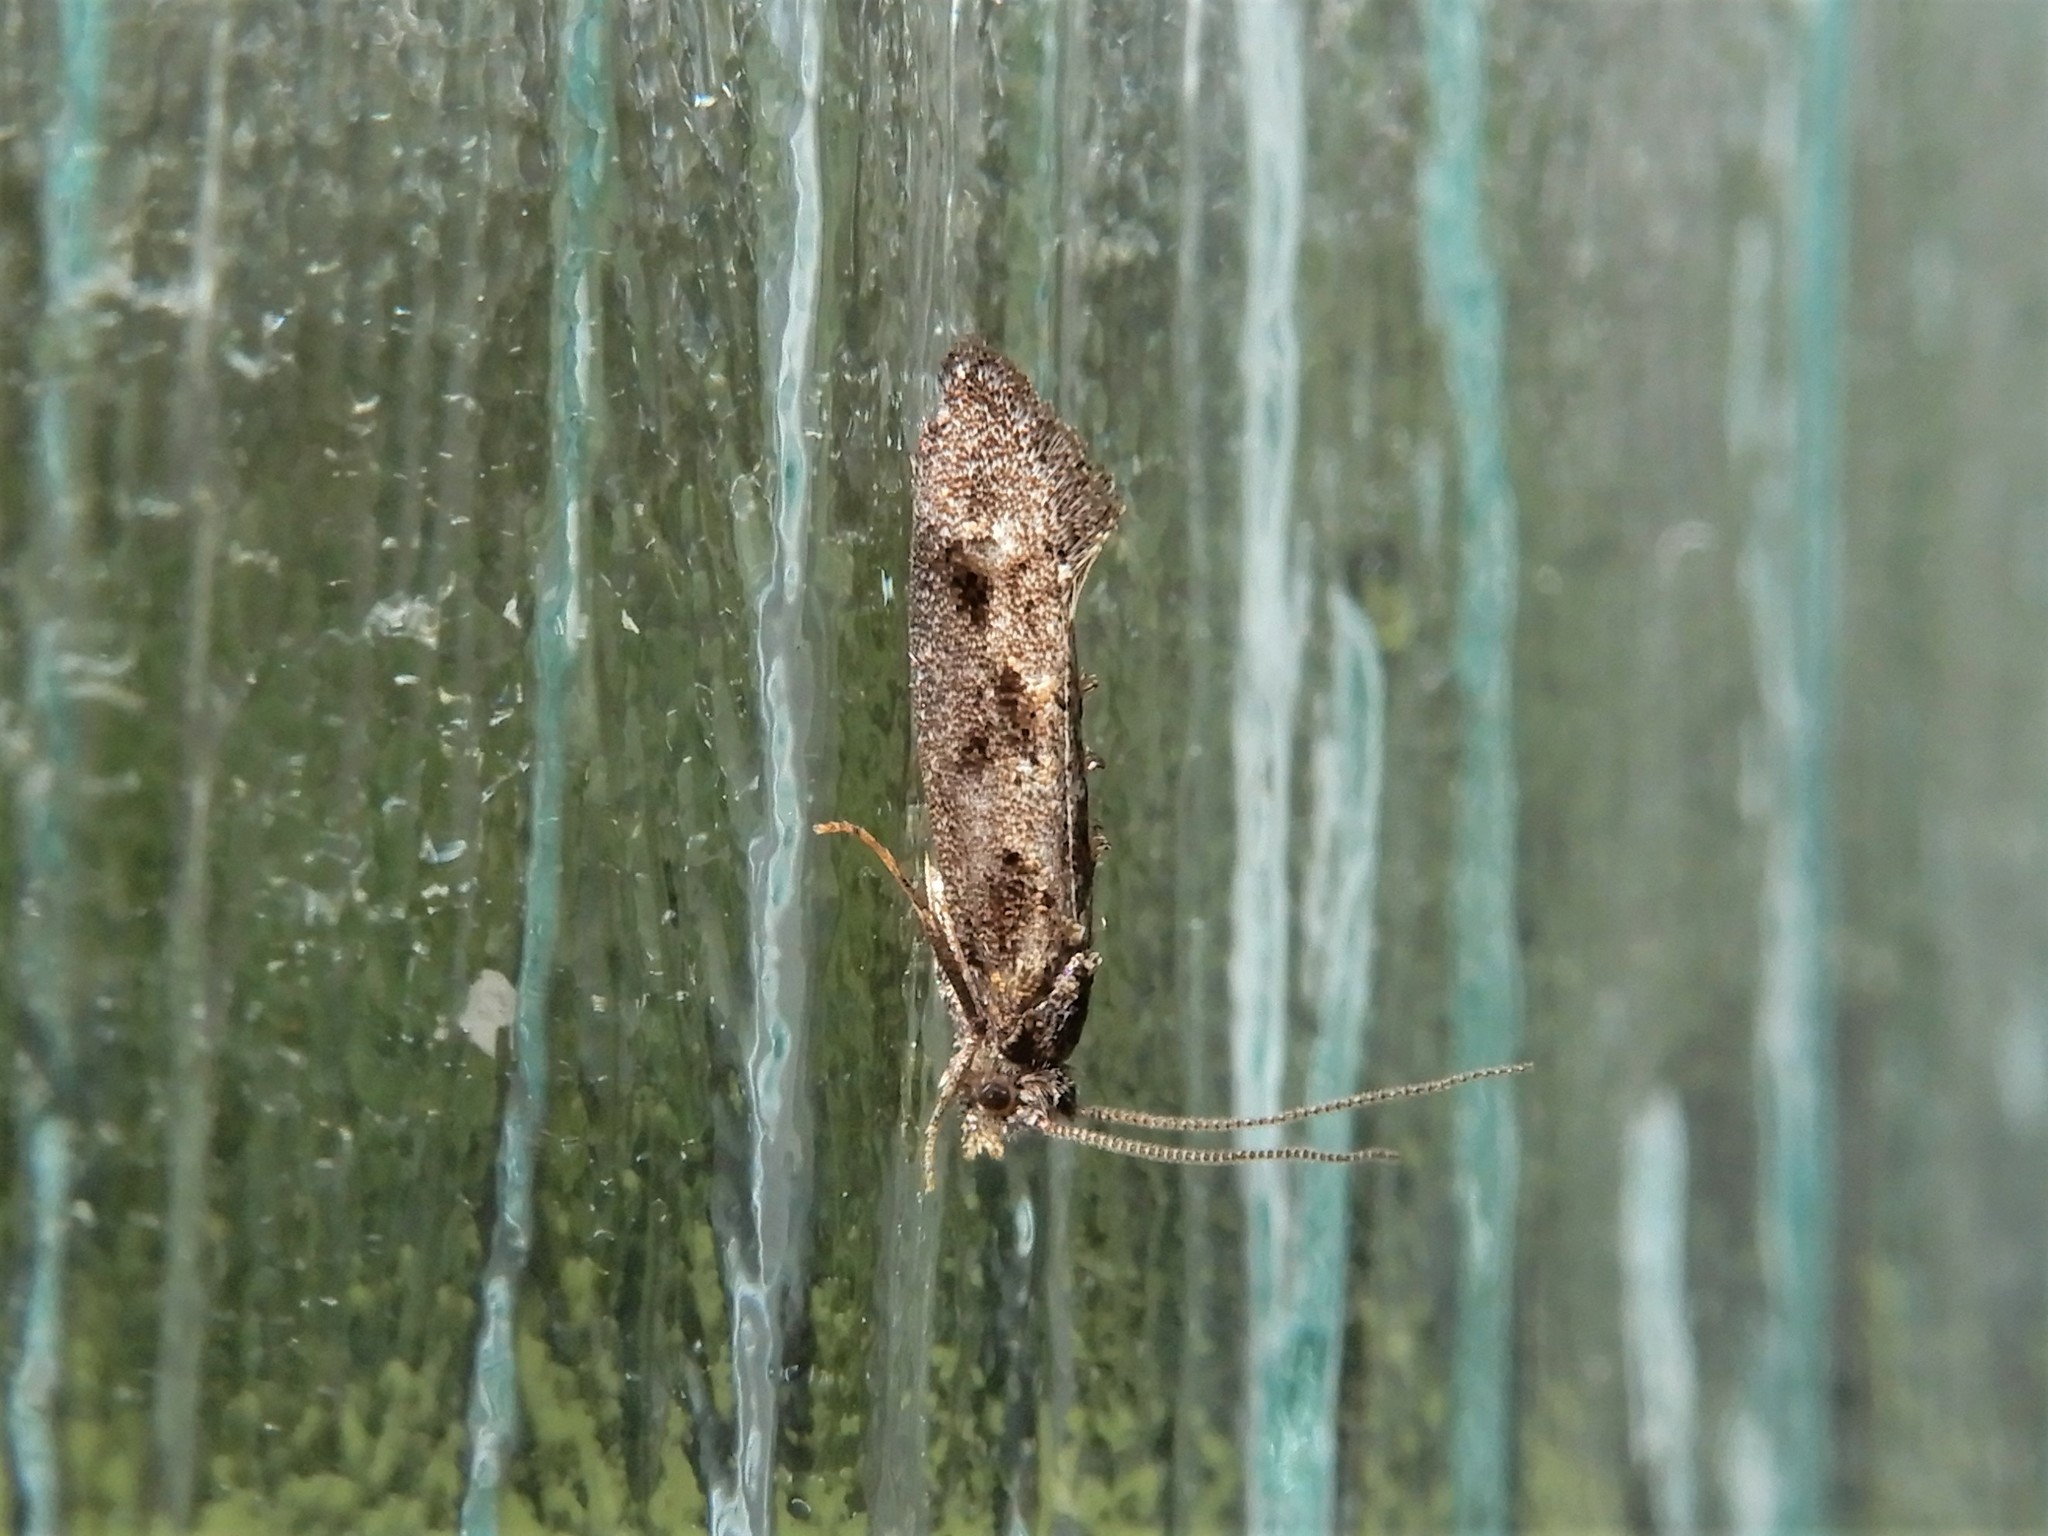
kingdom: Animalia
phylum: Arthropoda
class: Insecta
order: Lepidoptera
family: Tineidae
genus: Trithamnora
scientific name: Trithamnora certella
